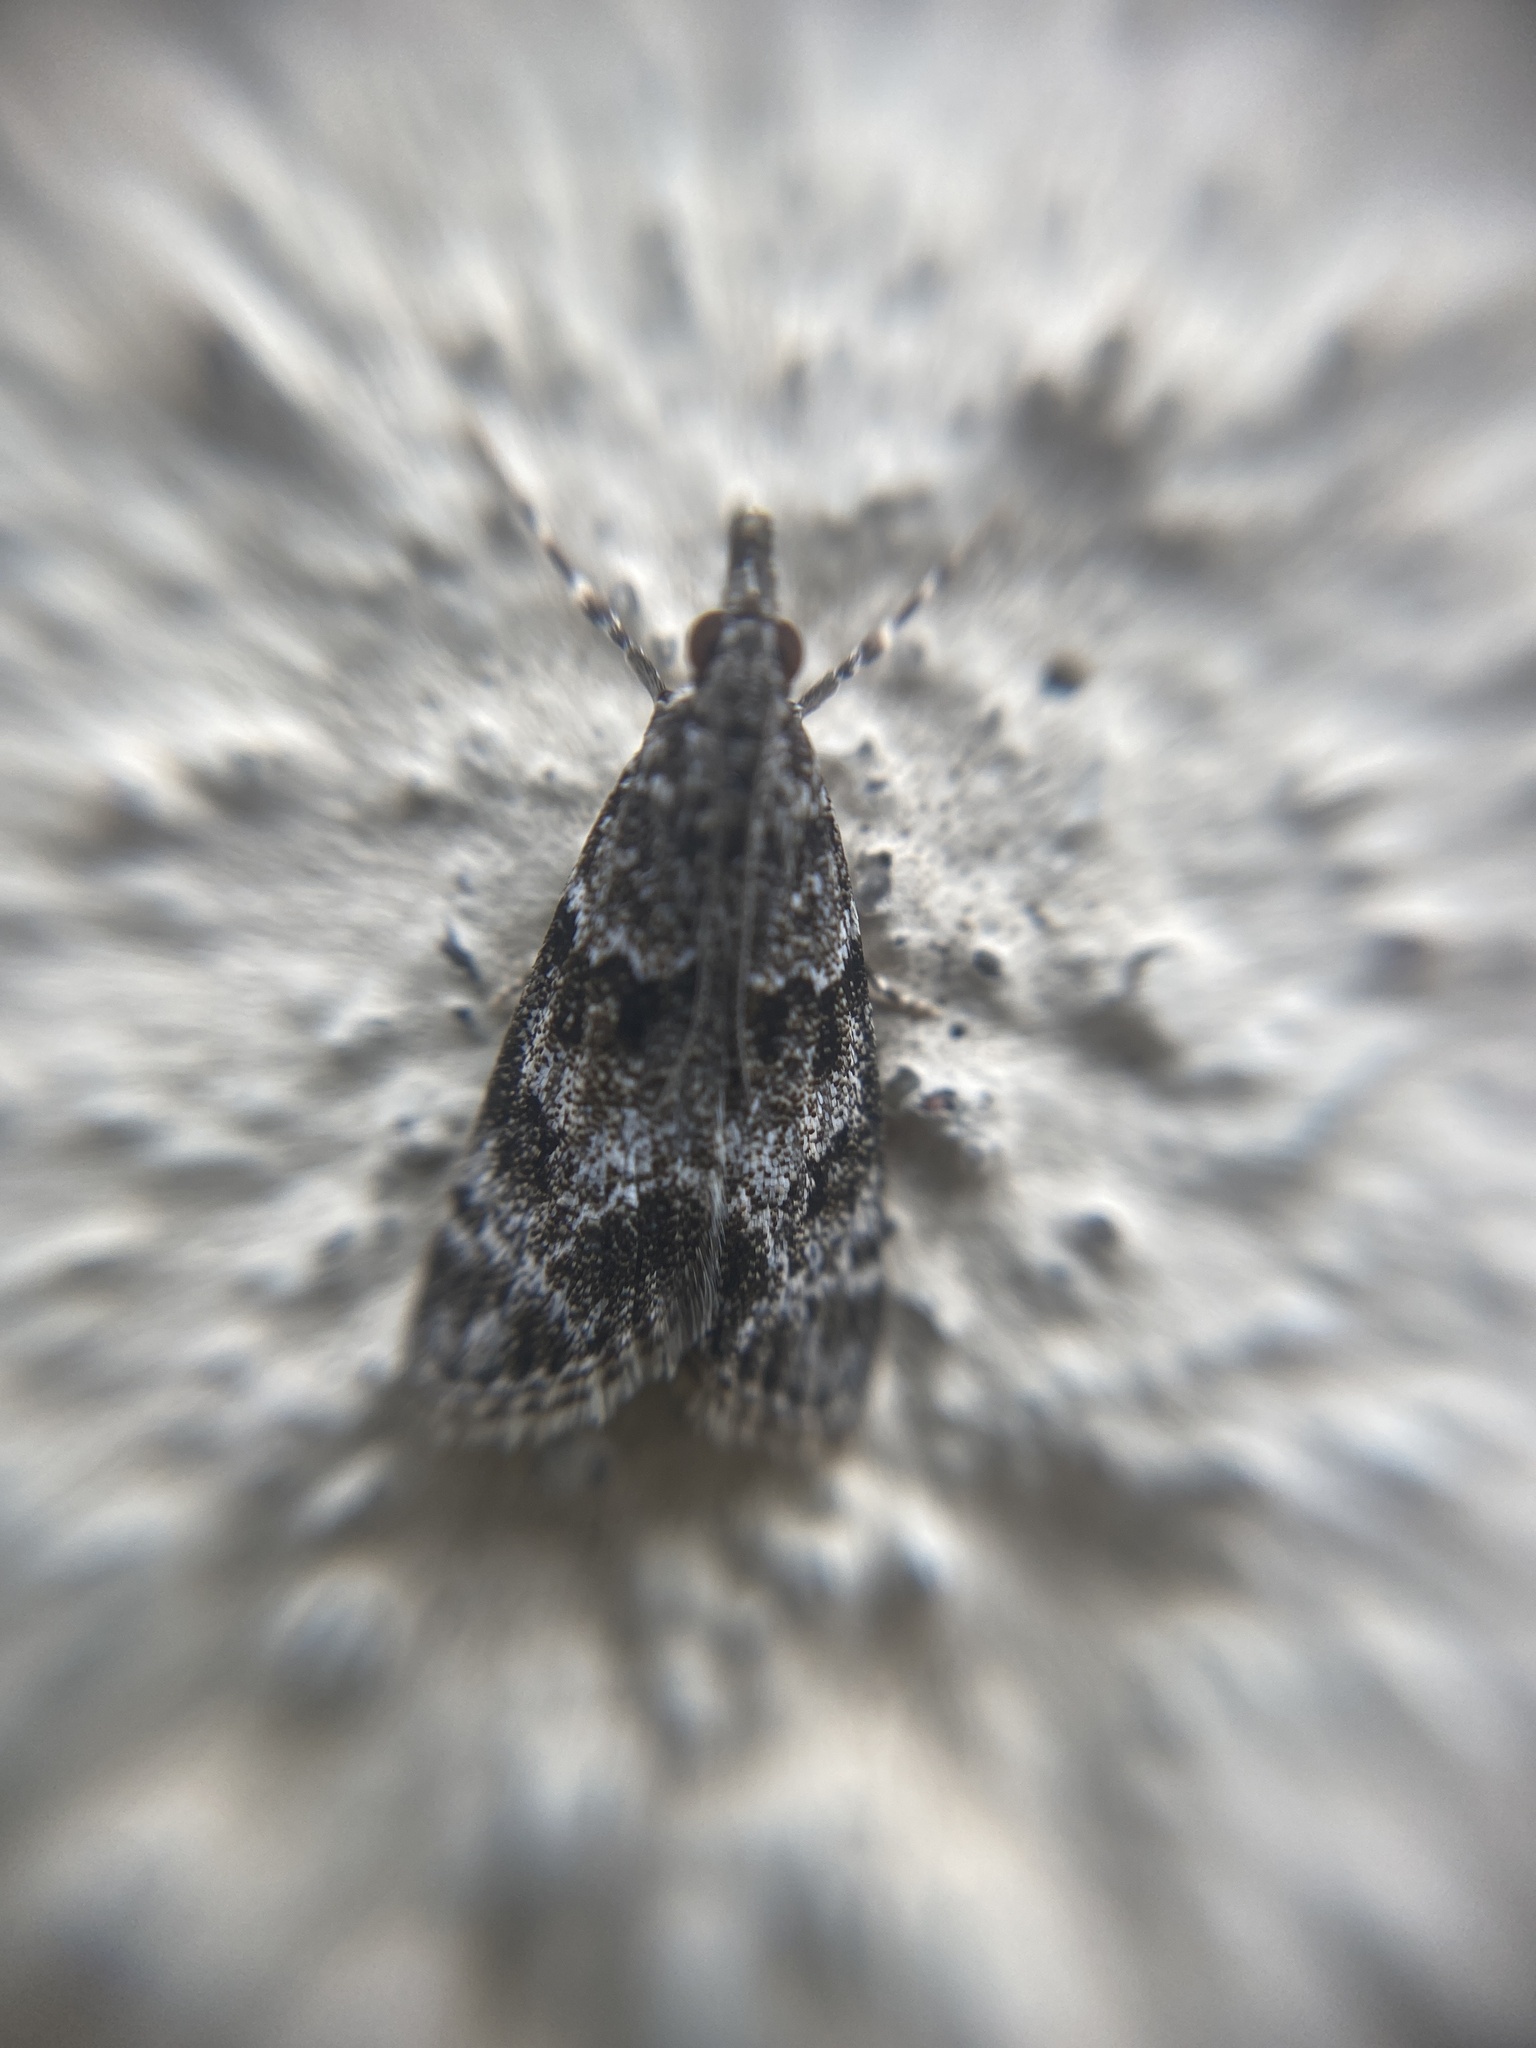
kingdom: Animalia
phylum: Arthropoda
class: Insecta
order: Lepidoptera
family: Crambidae
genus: Eudonia
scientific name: Eudonia mercurella
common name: Small grey
